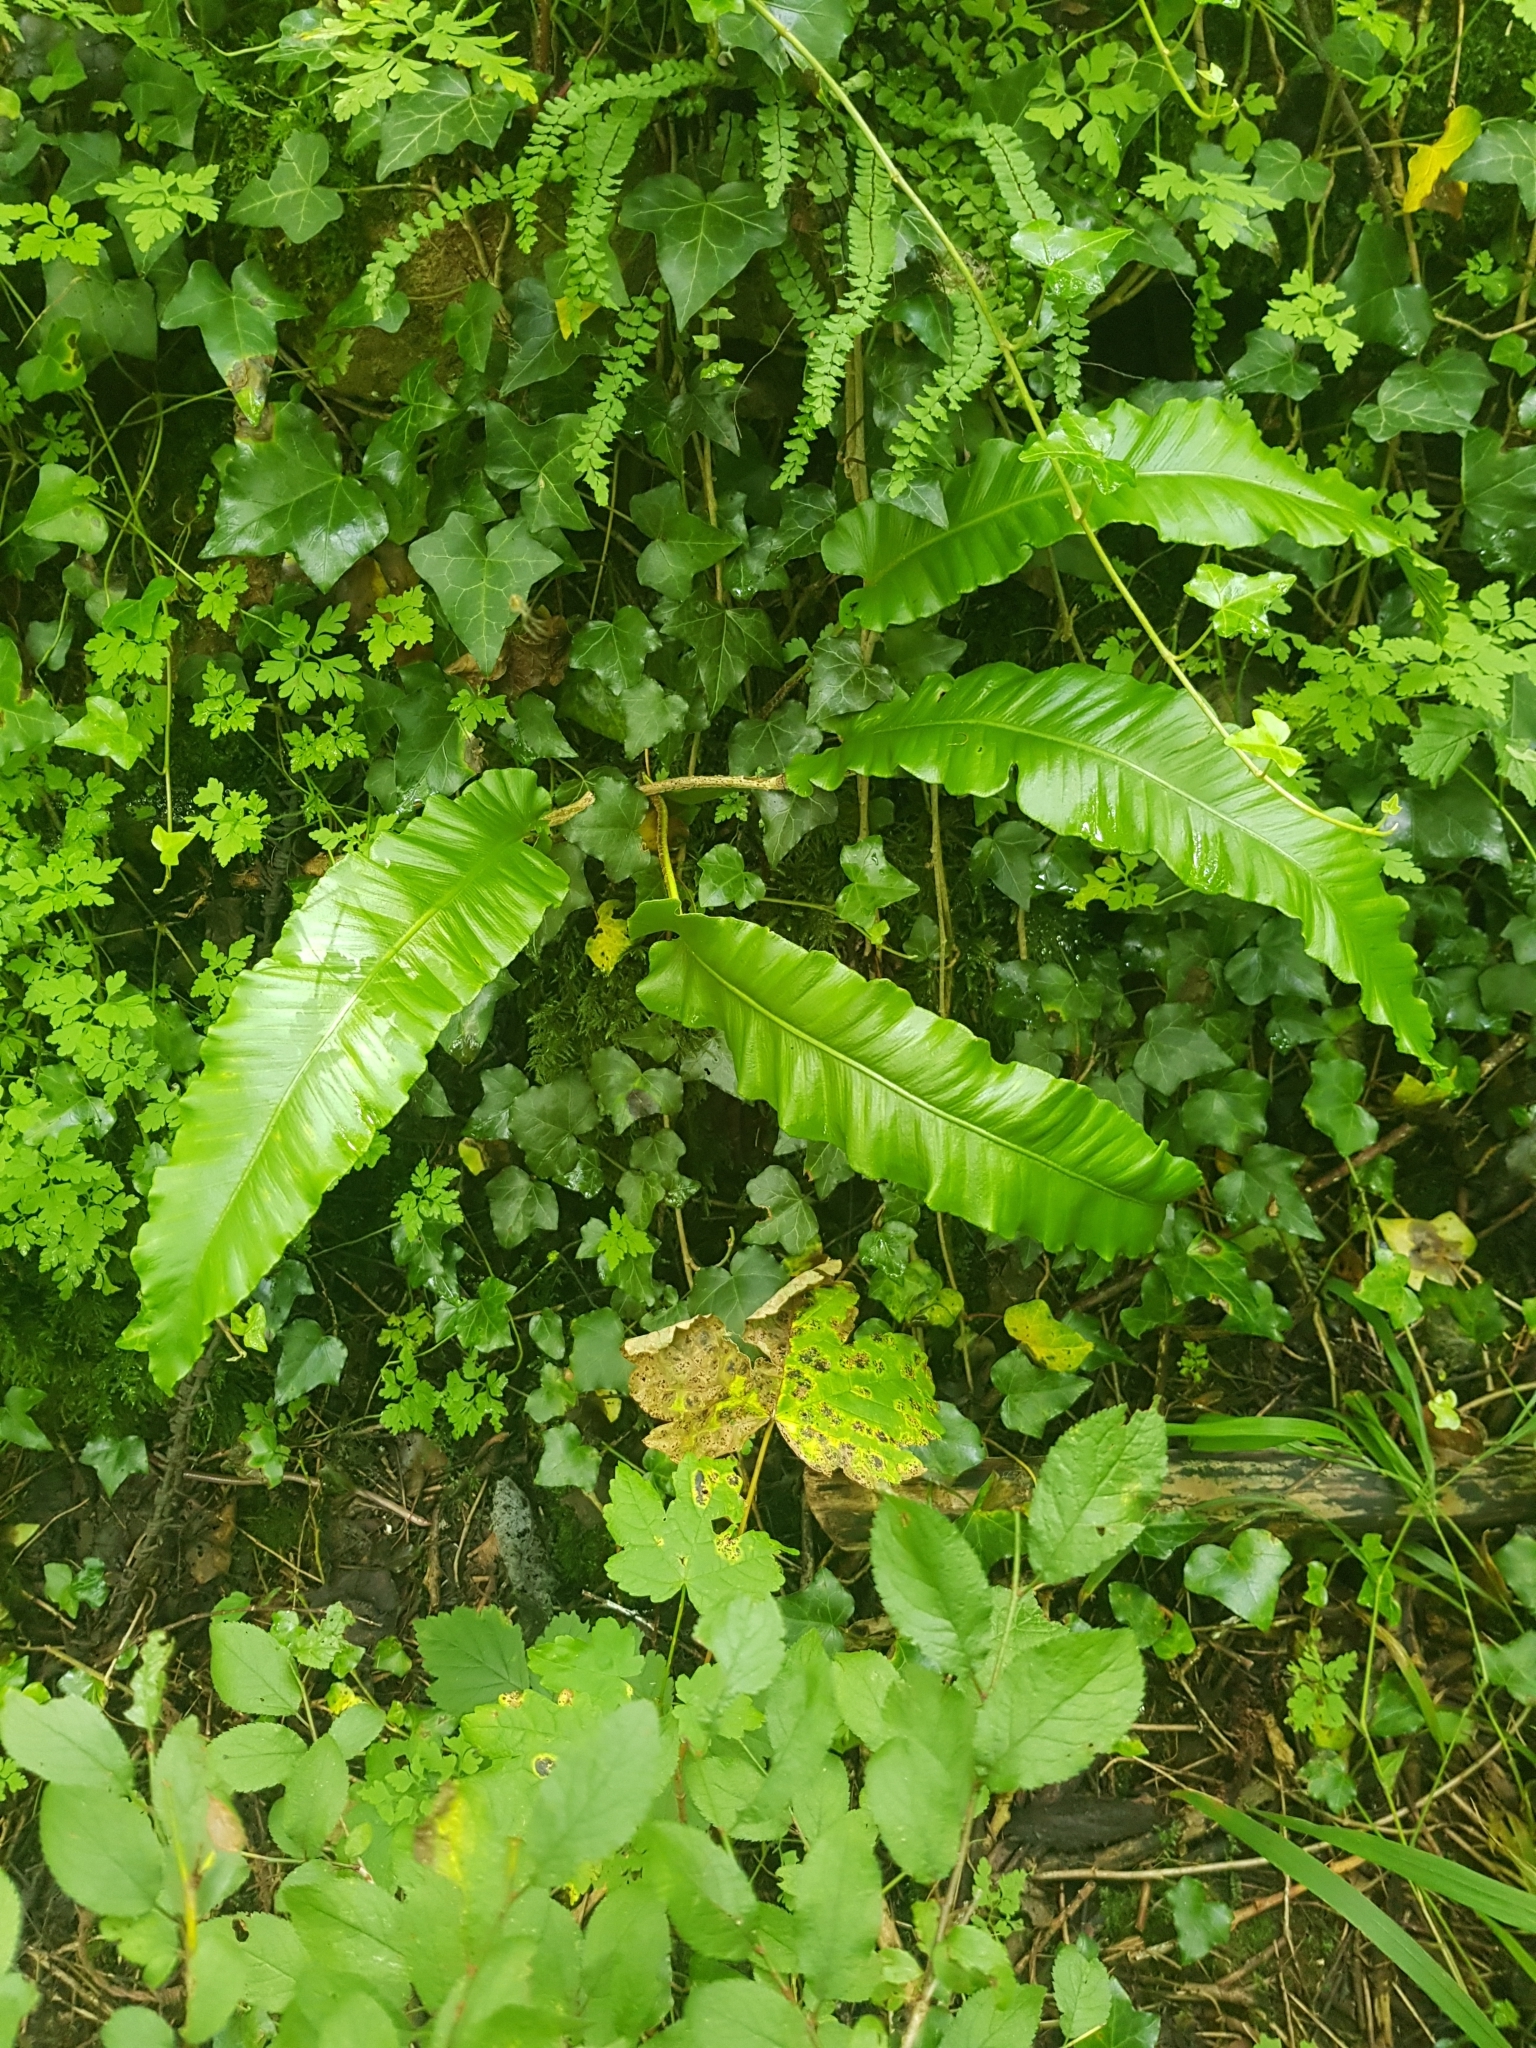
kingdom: Plantae
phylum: Tracheophyta
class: Polypodiopsida
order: Polypodiales
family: Aspleniaceae
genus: Asplenium
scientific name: Asplenium scolopendrium
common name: Hart's-tongue fern
